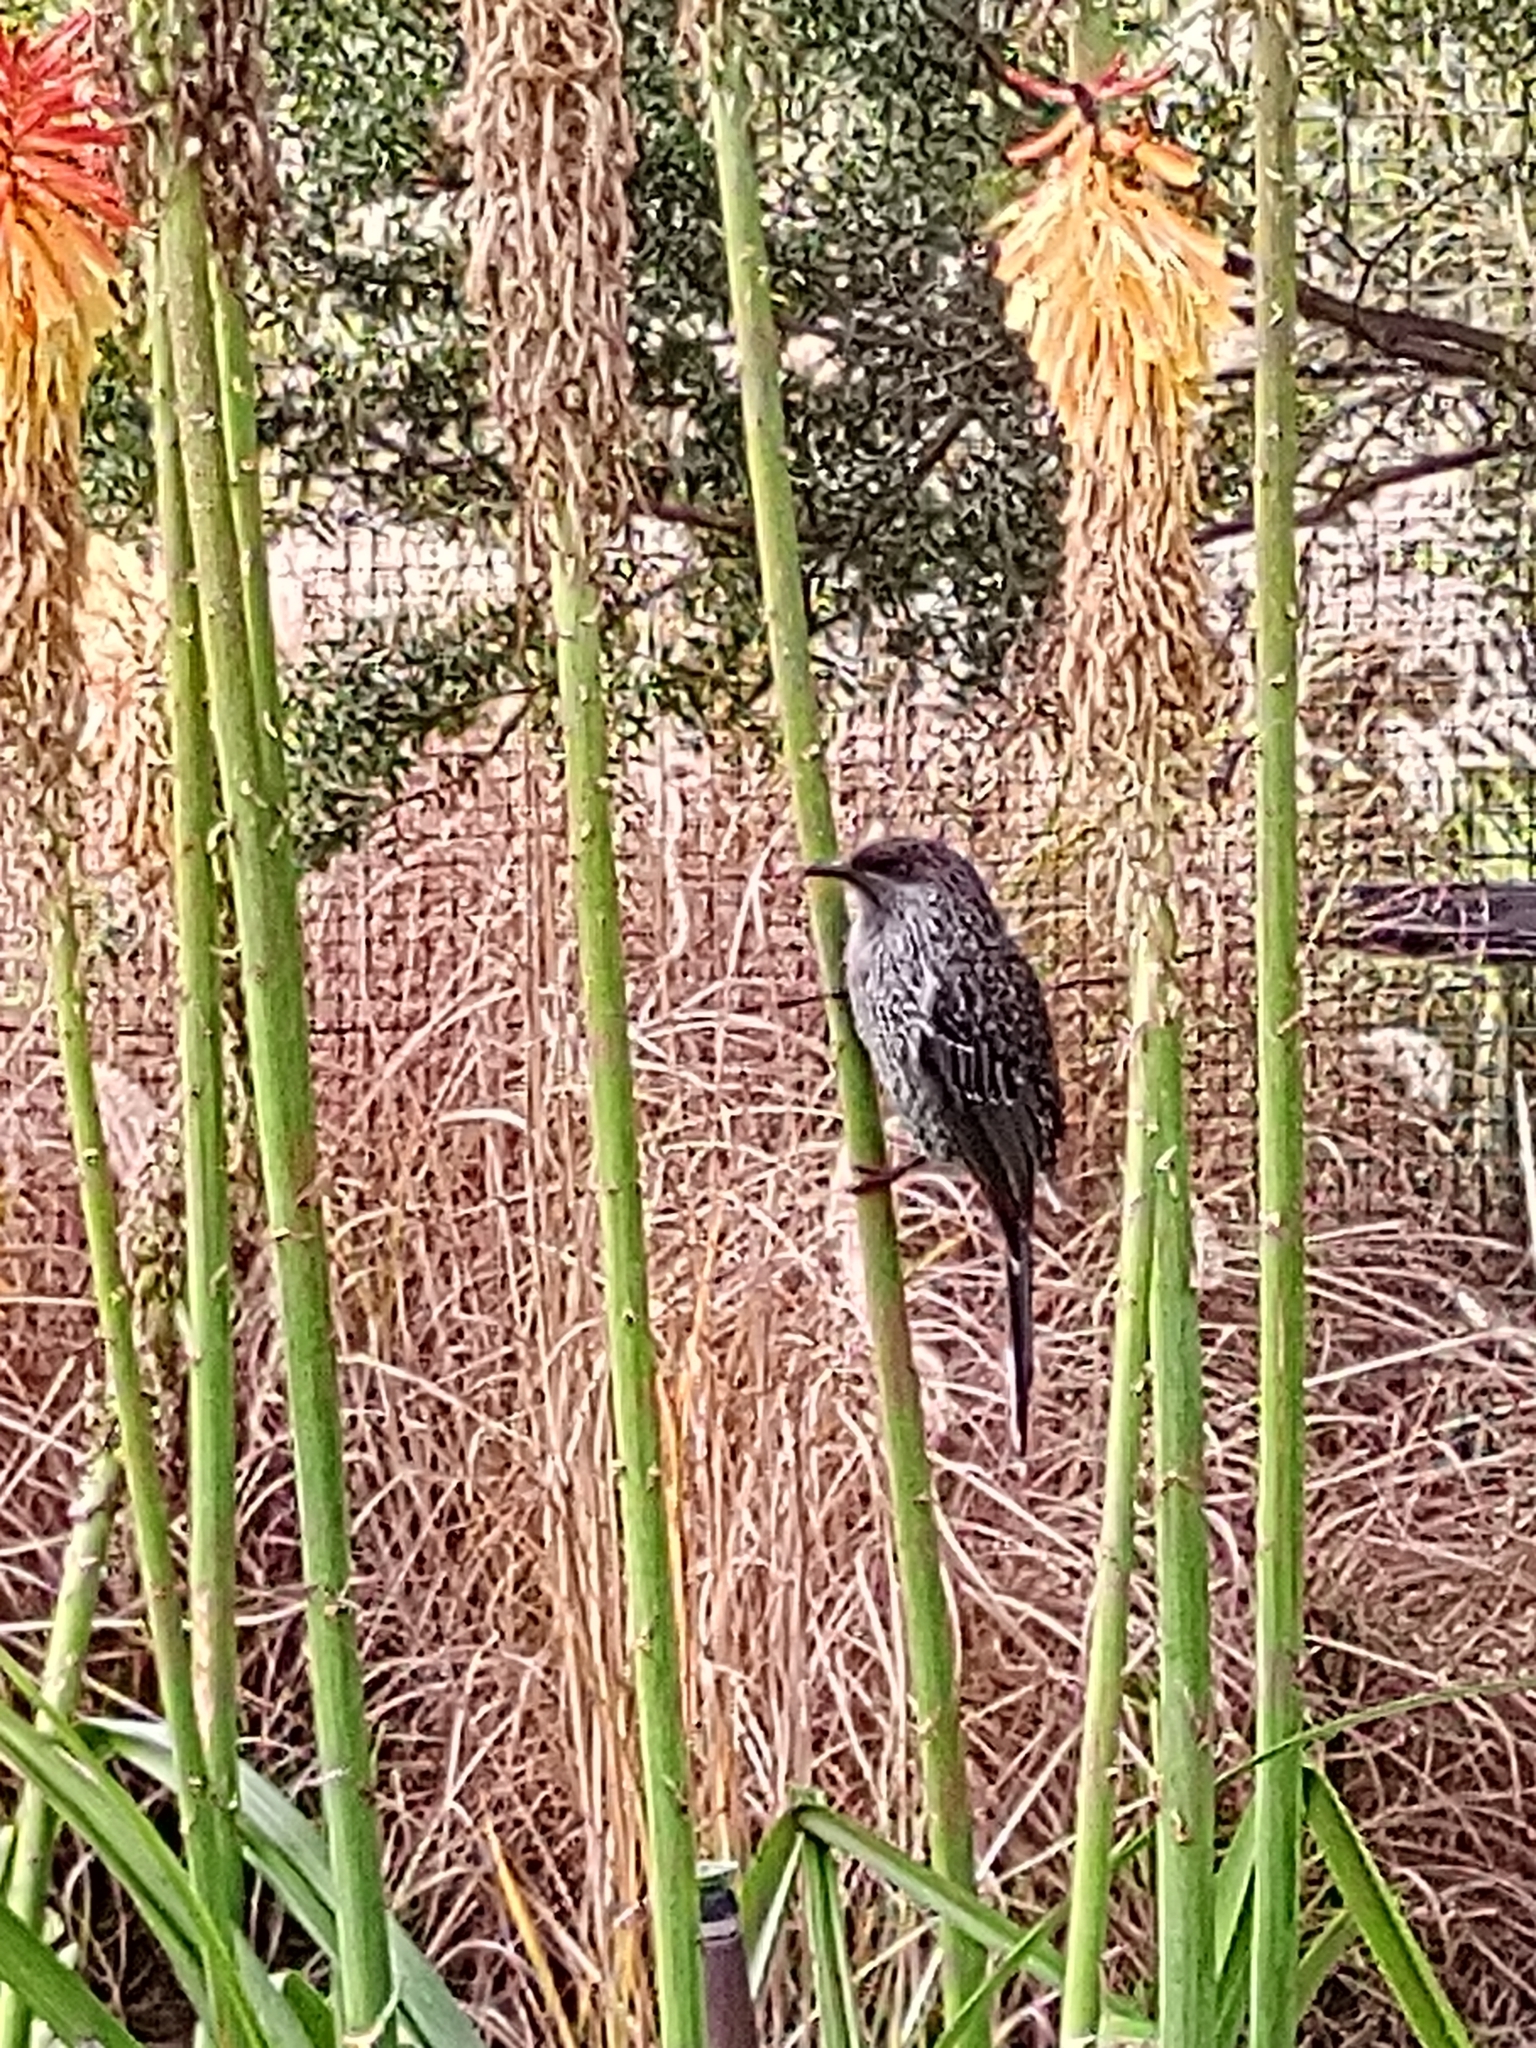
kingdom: Animalia
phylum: Chordata
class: Aves
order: Passeriformes
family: Meliphagidae
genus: Anthochaera
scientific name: Anthochaera chrysoptera
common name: Little wattlebird
